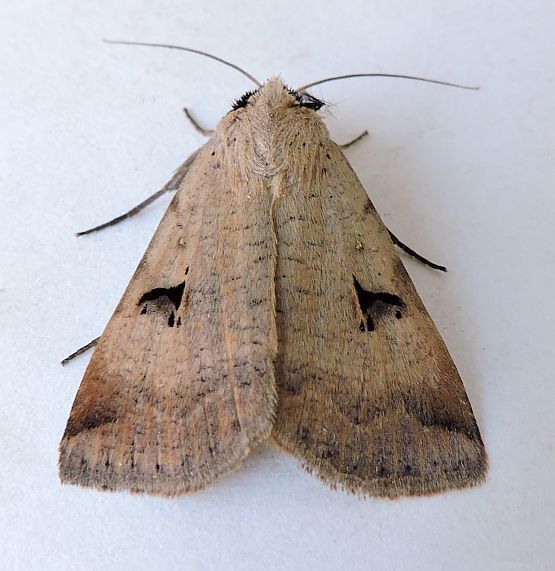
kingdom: Animalia
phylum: Arthropoda
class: Insecta
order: Lepidoptera
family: Erebidae
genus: Lygephila
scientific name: Lygephila victoria
